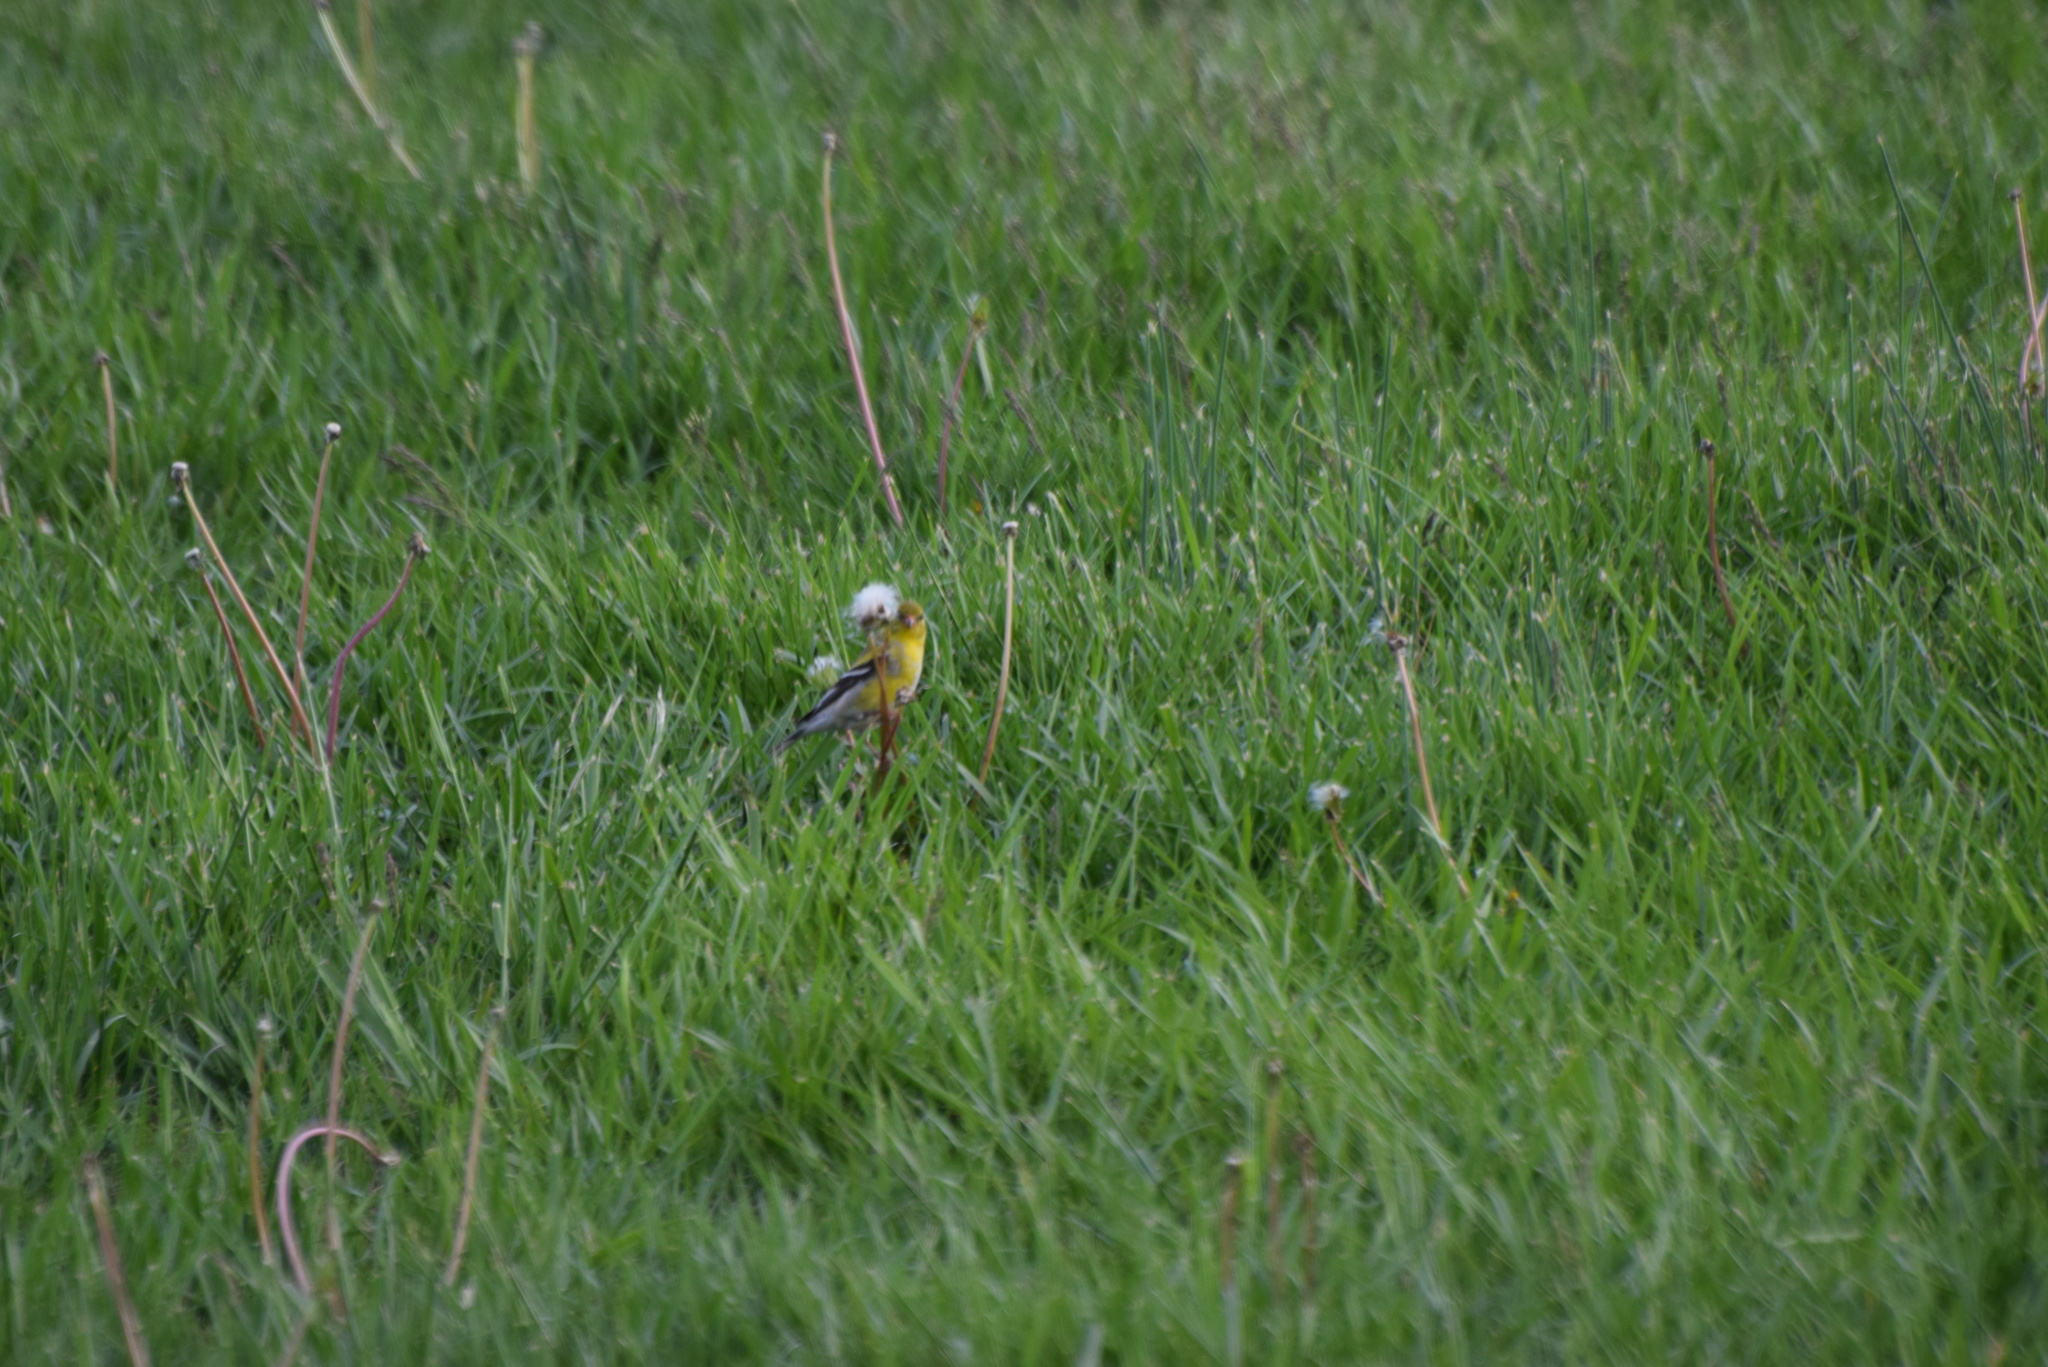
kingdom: Animalia
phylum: Chordata
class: Aves
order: Passeriformes
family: Fringillidae
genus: Spinus
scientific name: Spinus tristis
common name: American goldfinch
